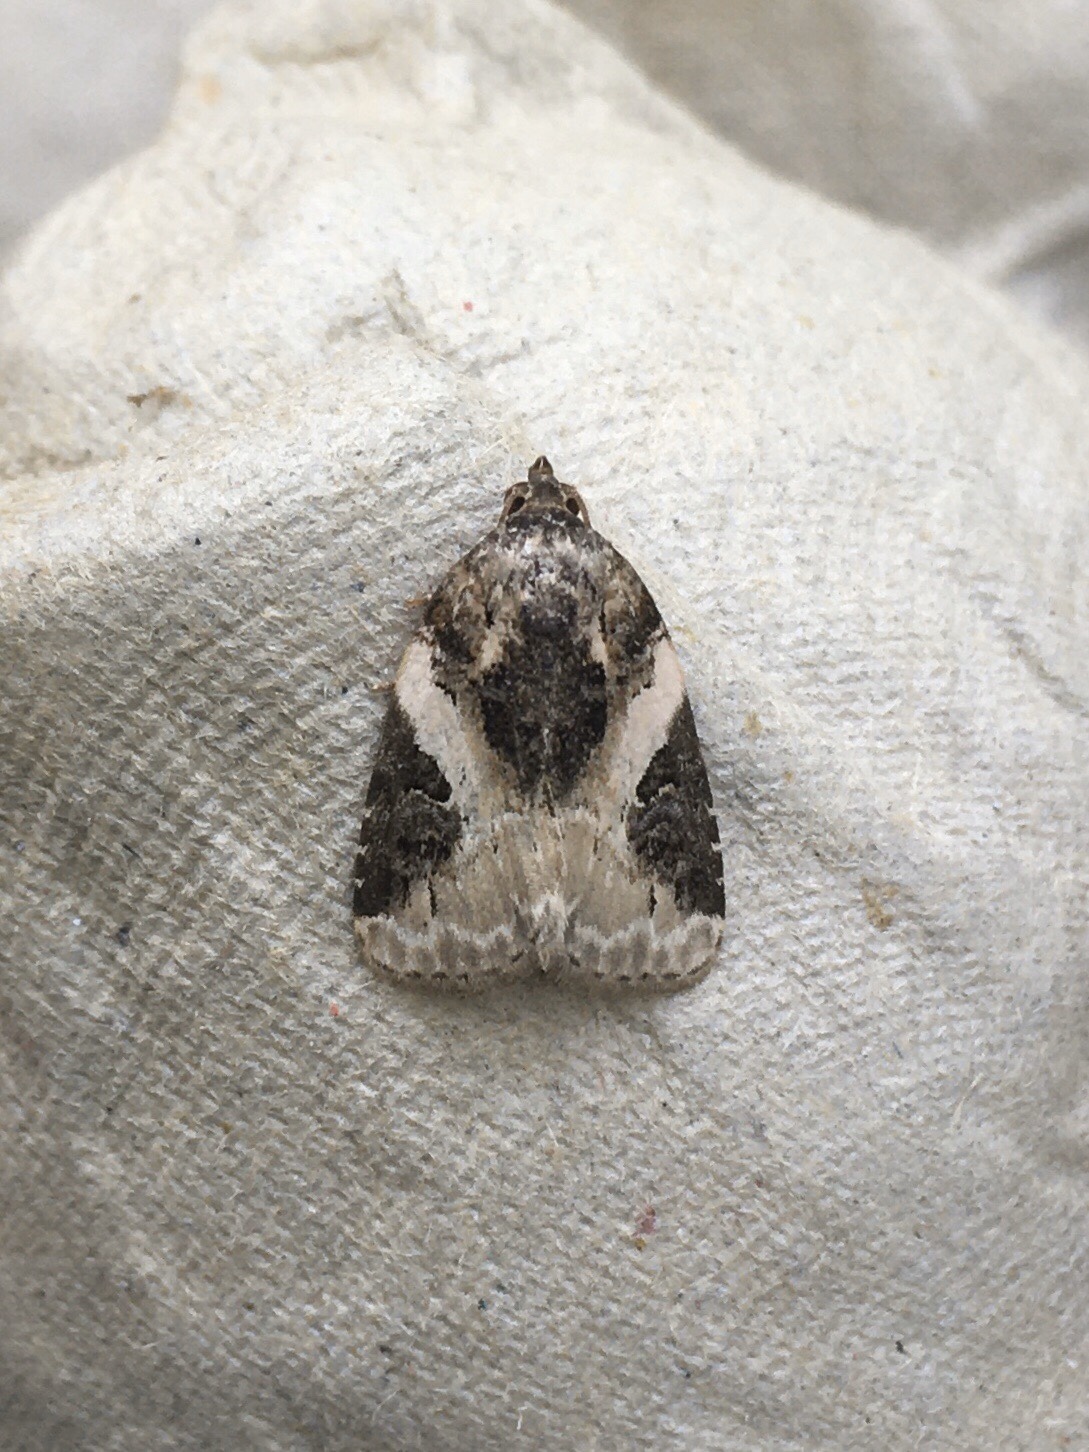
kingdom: Animalia
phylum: Arthropoda
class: Insecta
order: Lepidoptera
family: Noctuidae
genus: Pseudeustrotia
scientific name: Pseudeustrotia carneola
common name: Pink-barred lithacodia moth
